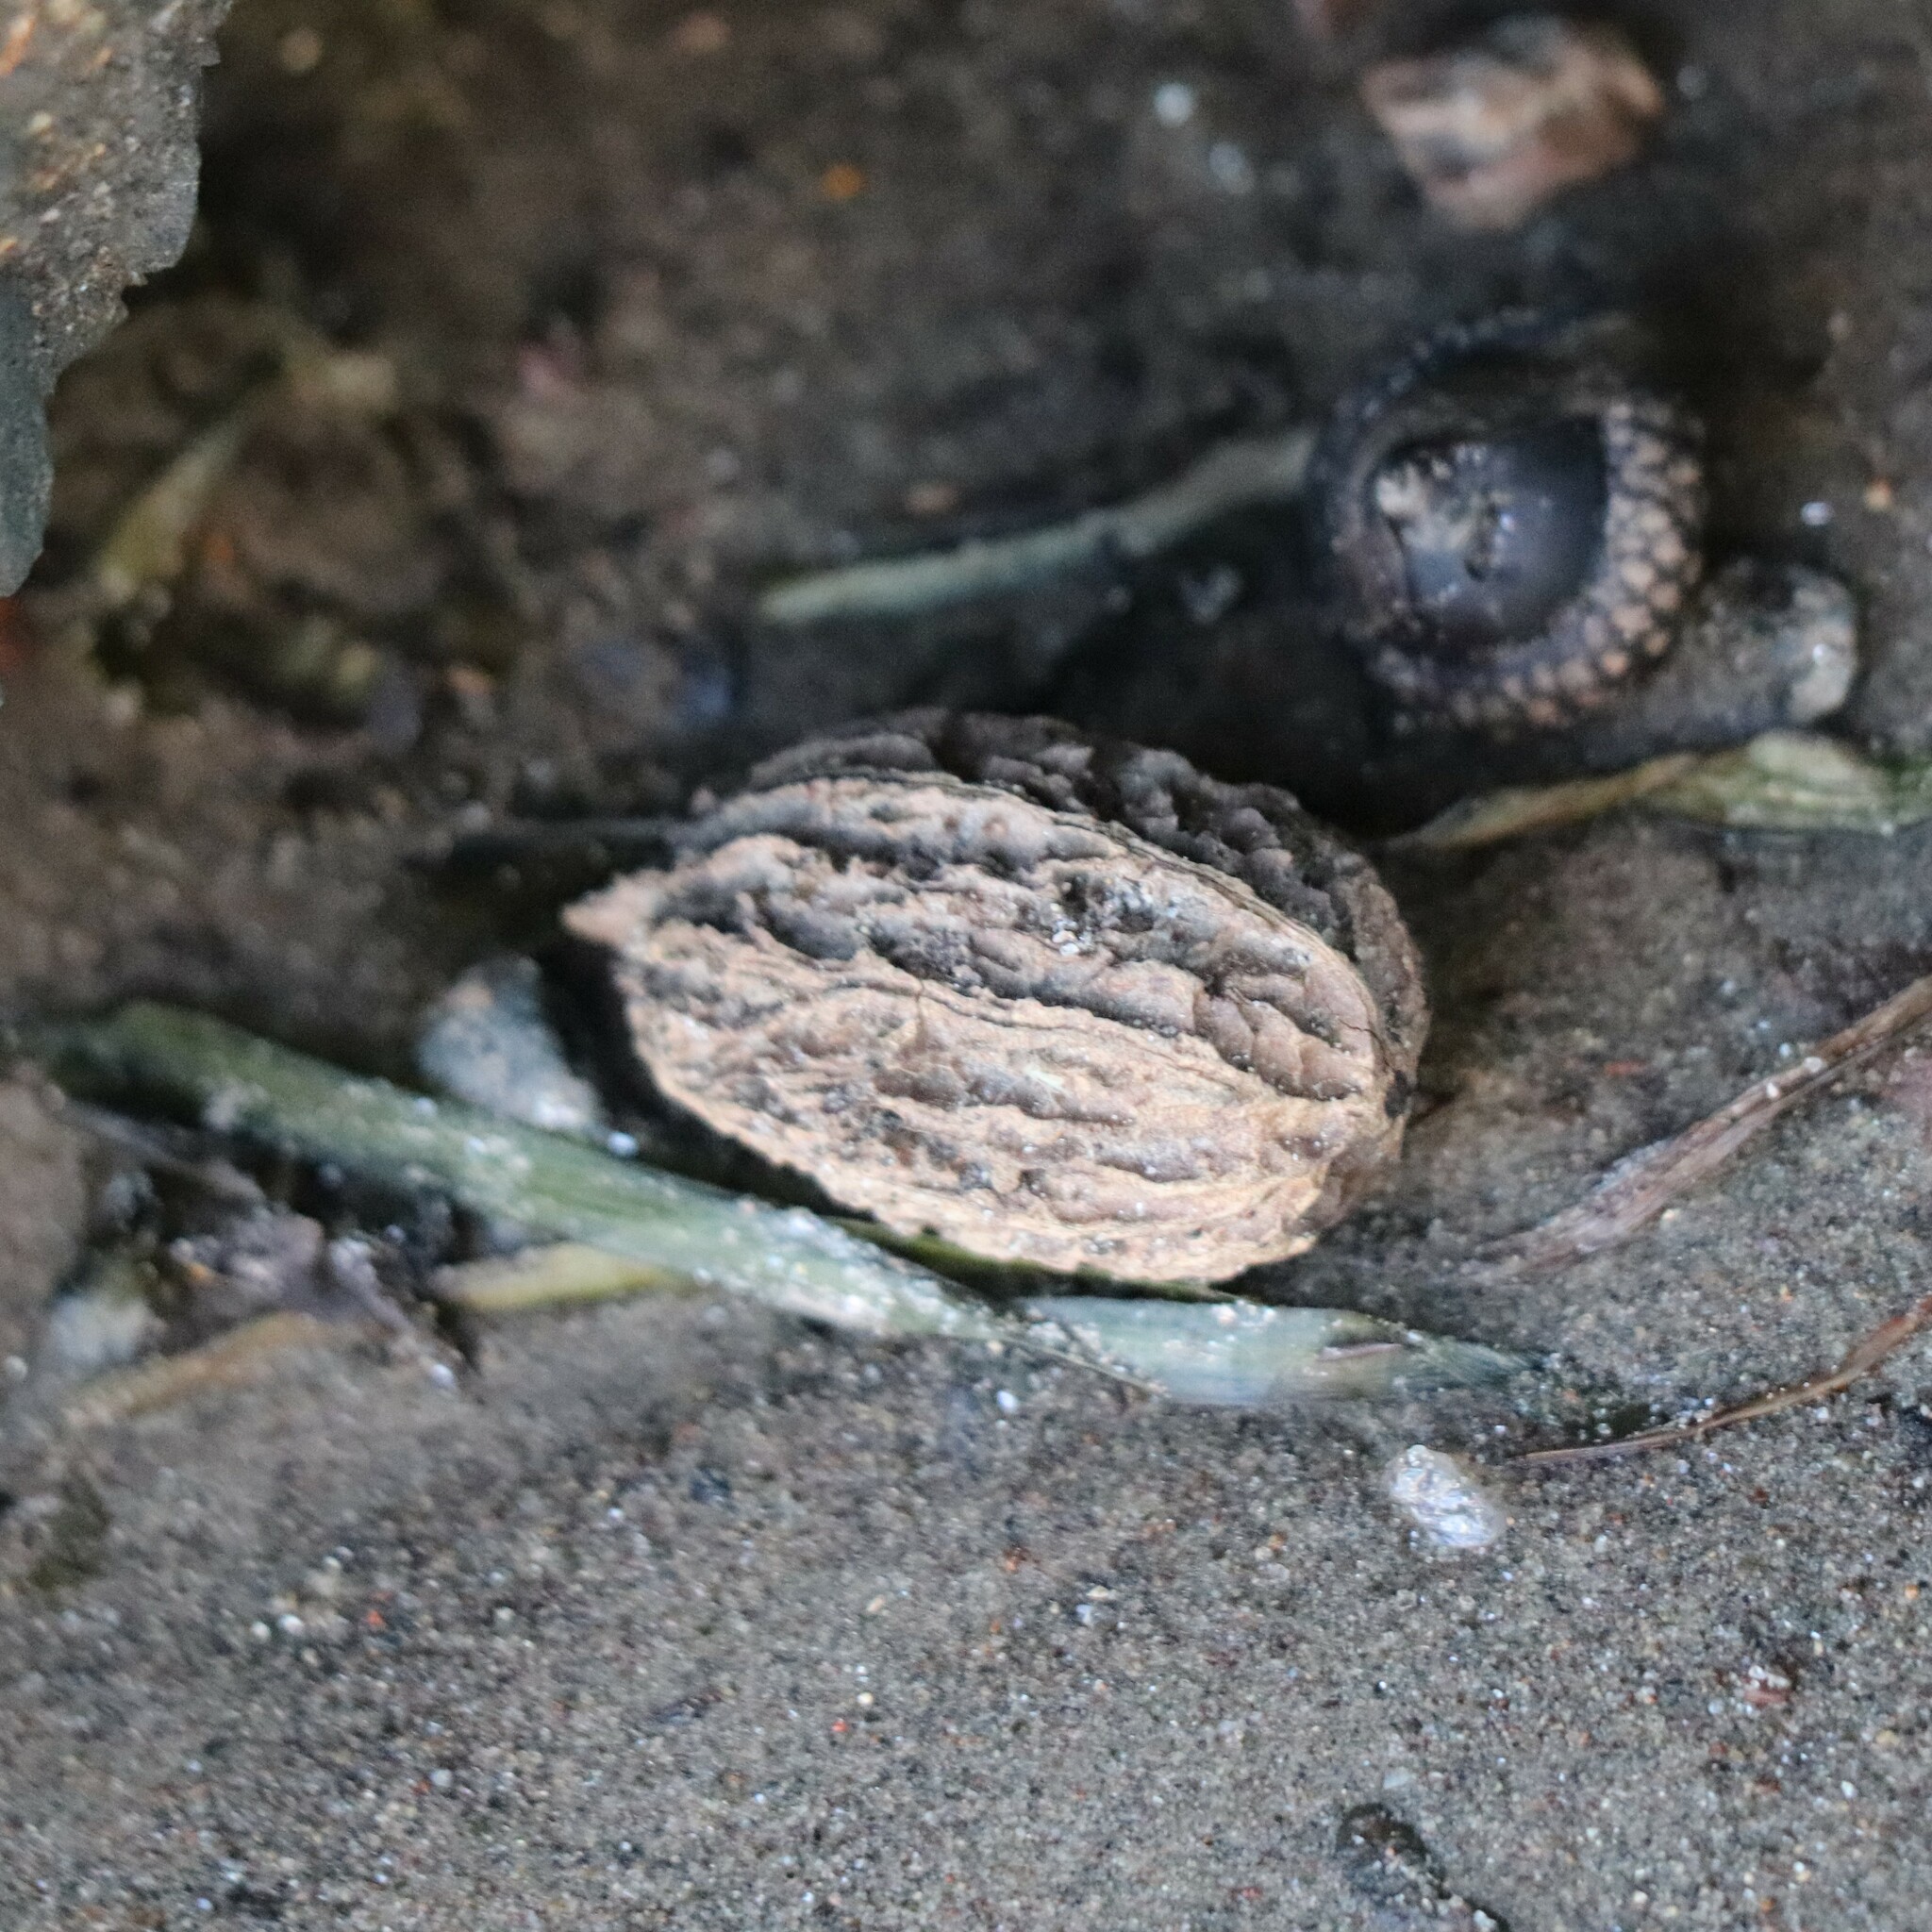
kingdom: Plantae
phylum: Tracheophyta
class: Magnoliopsida
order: Fagales
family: Juglandaceae
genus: Juglans
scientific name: Juglans cinerea
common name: Butternut
